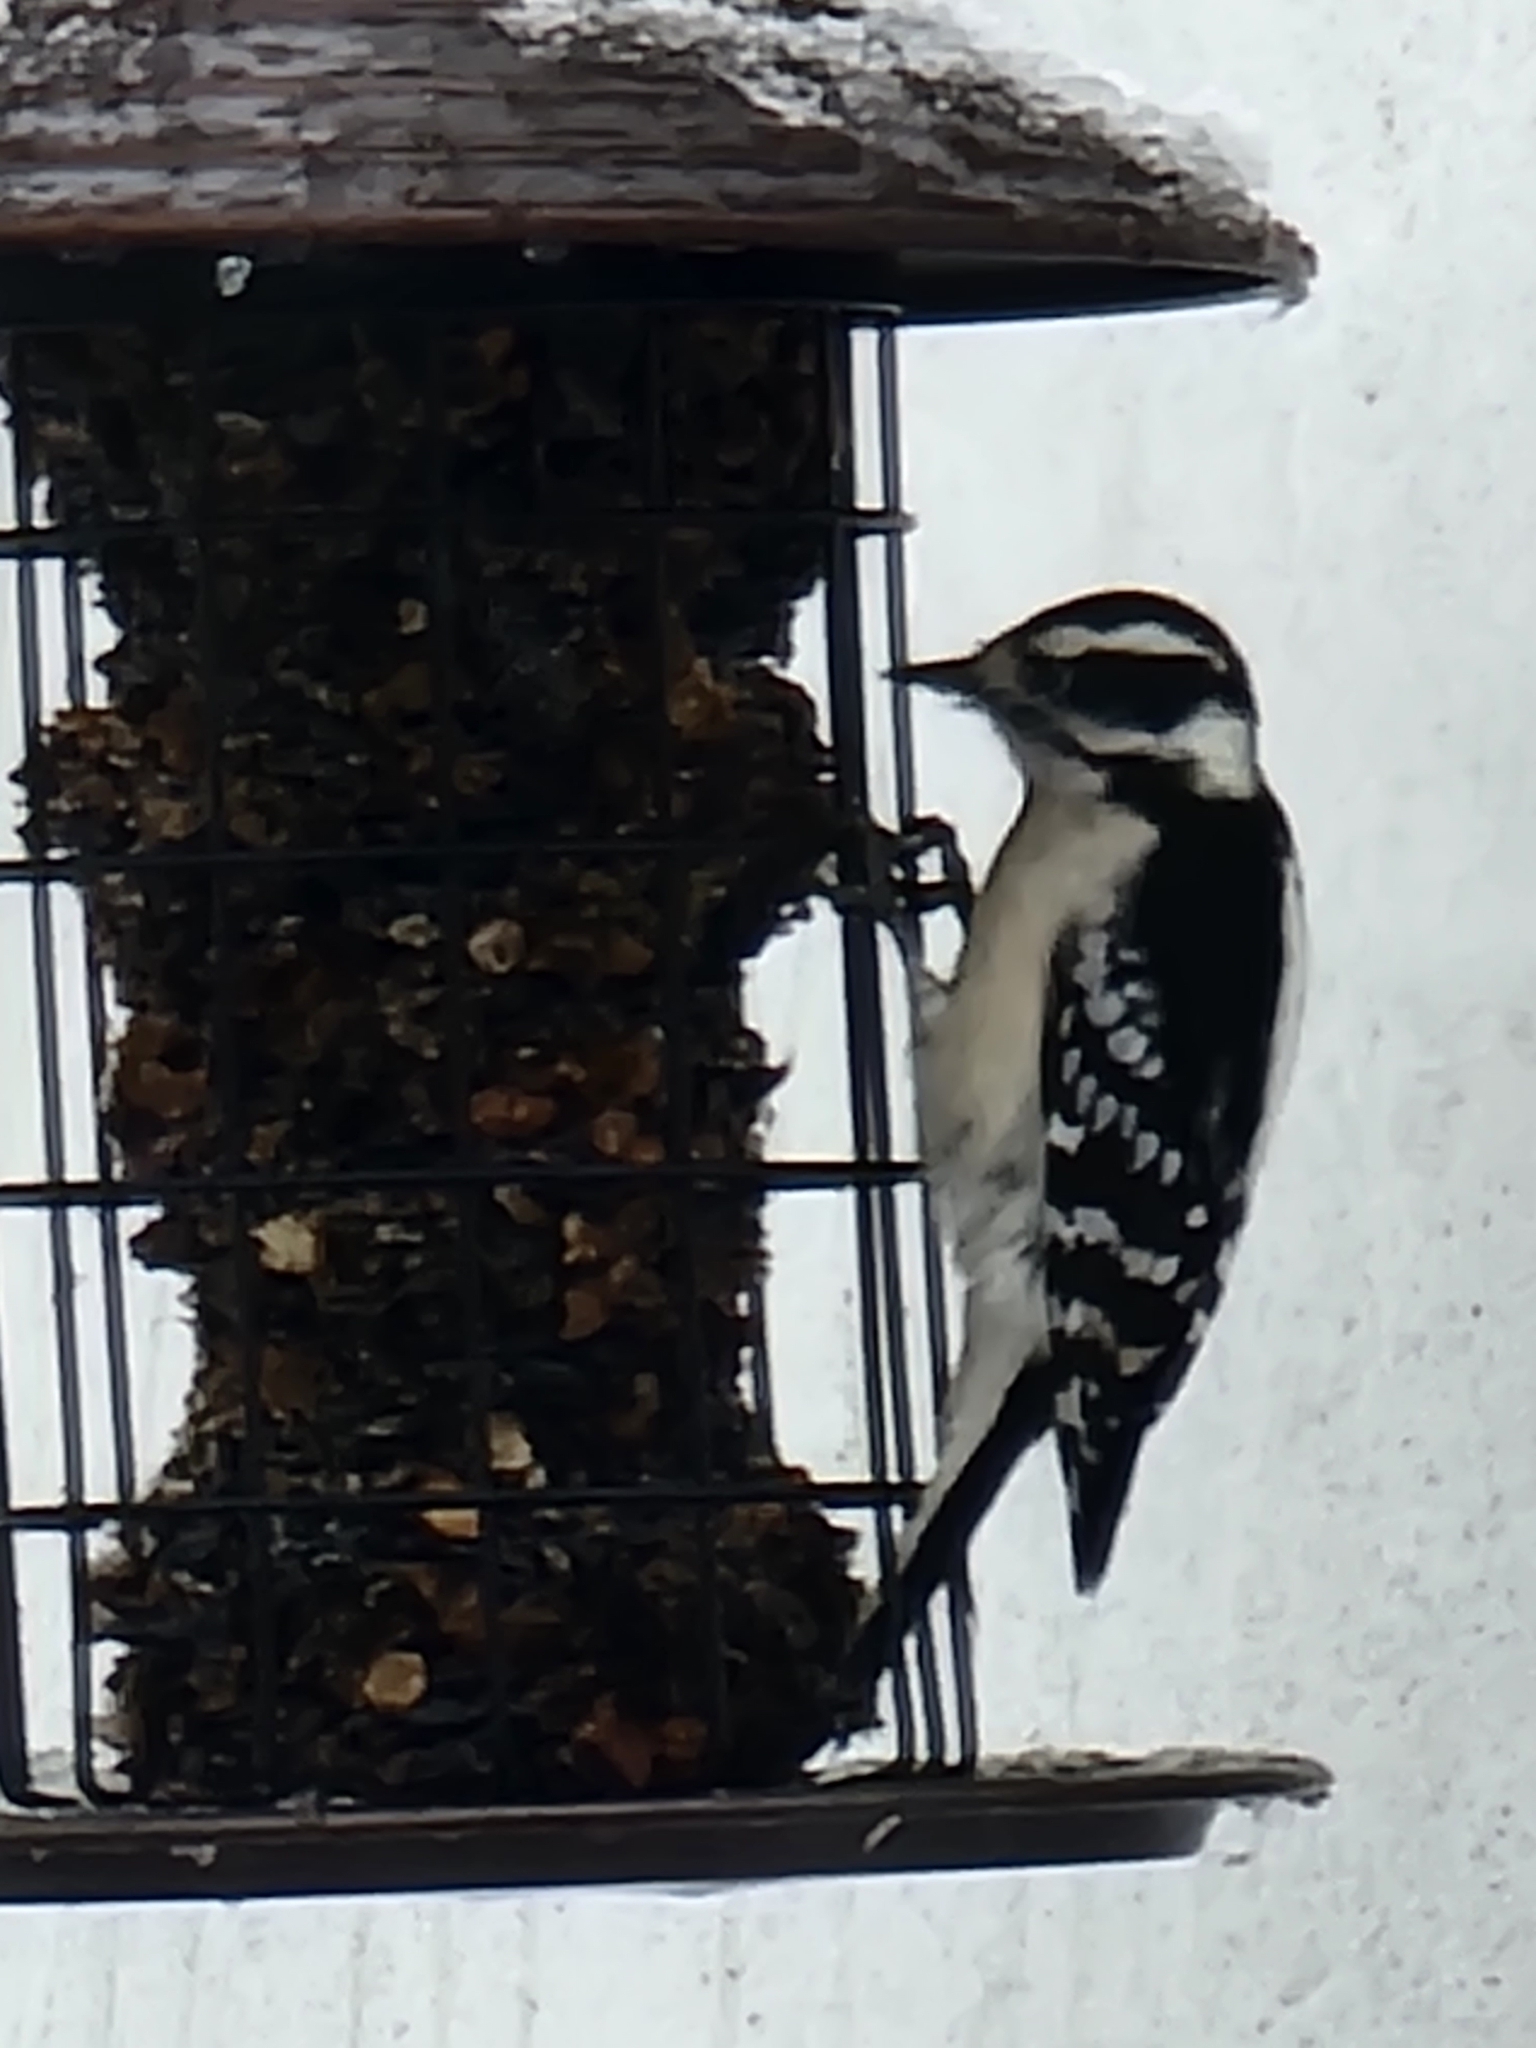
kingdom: Animalia
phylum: Chordata
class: Aves
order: Piciformes
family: Picidae
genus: Dryobates
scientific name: Dryobates pubescens
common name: Downy woodpecker
